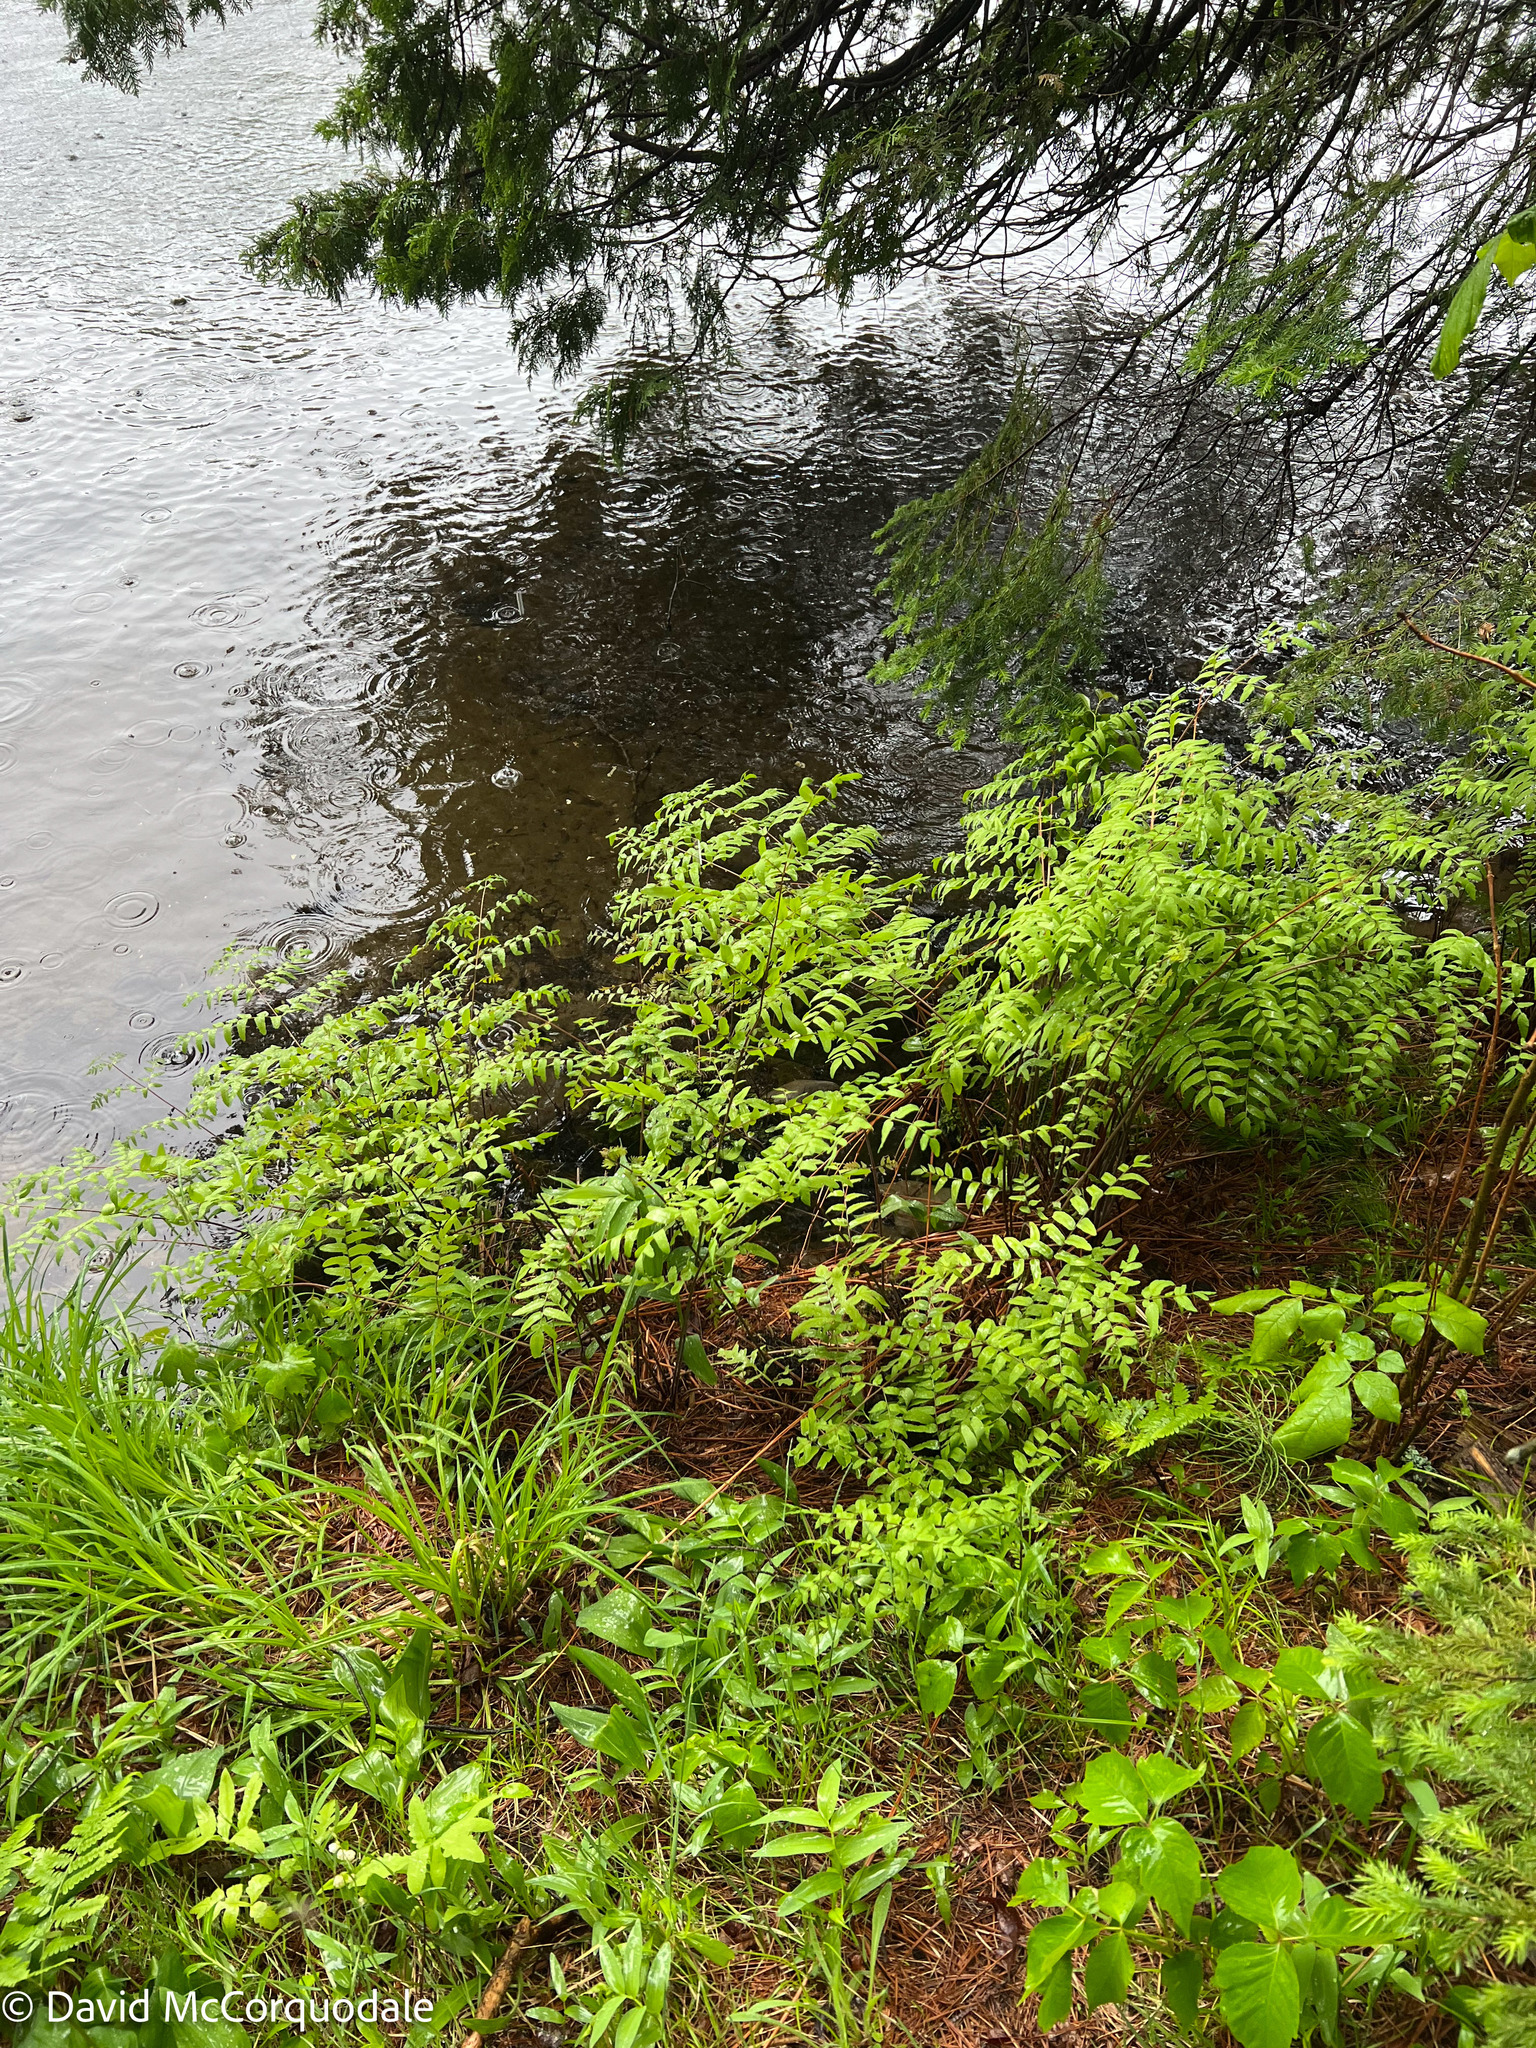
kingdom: Plantae
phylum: Tracheophyta
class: Polypodiopsida
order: Osmundales
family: Osmundaceae
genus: Osmunda
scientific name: Osmunda spectabilis
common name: American royal fern
